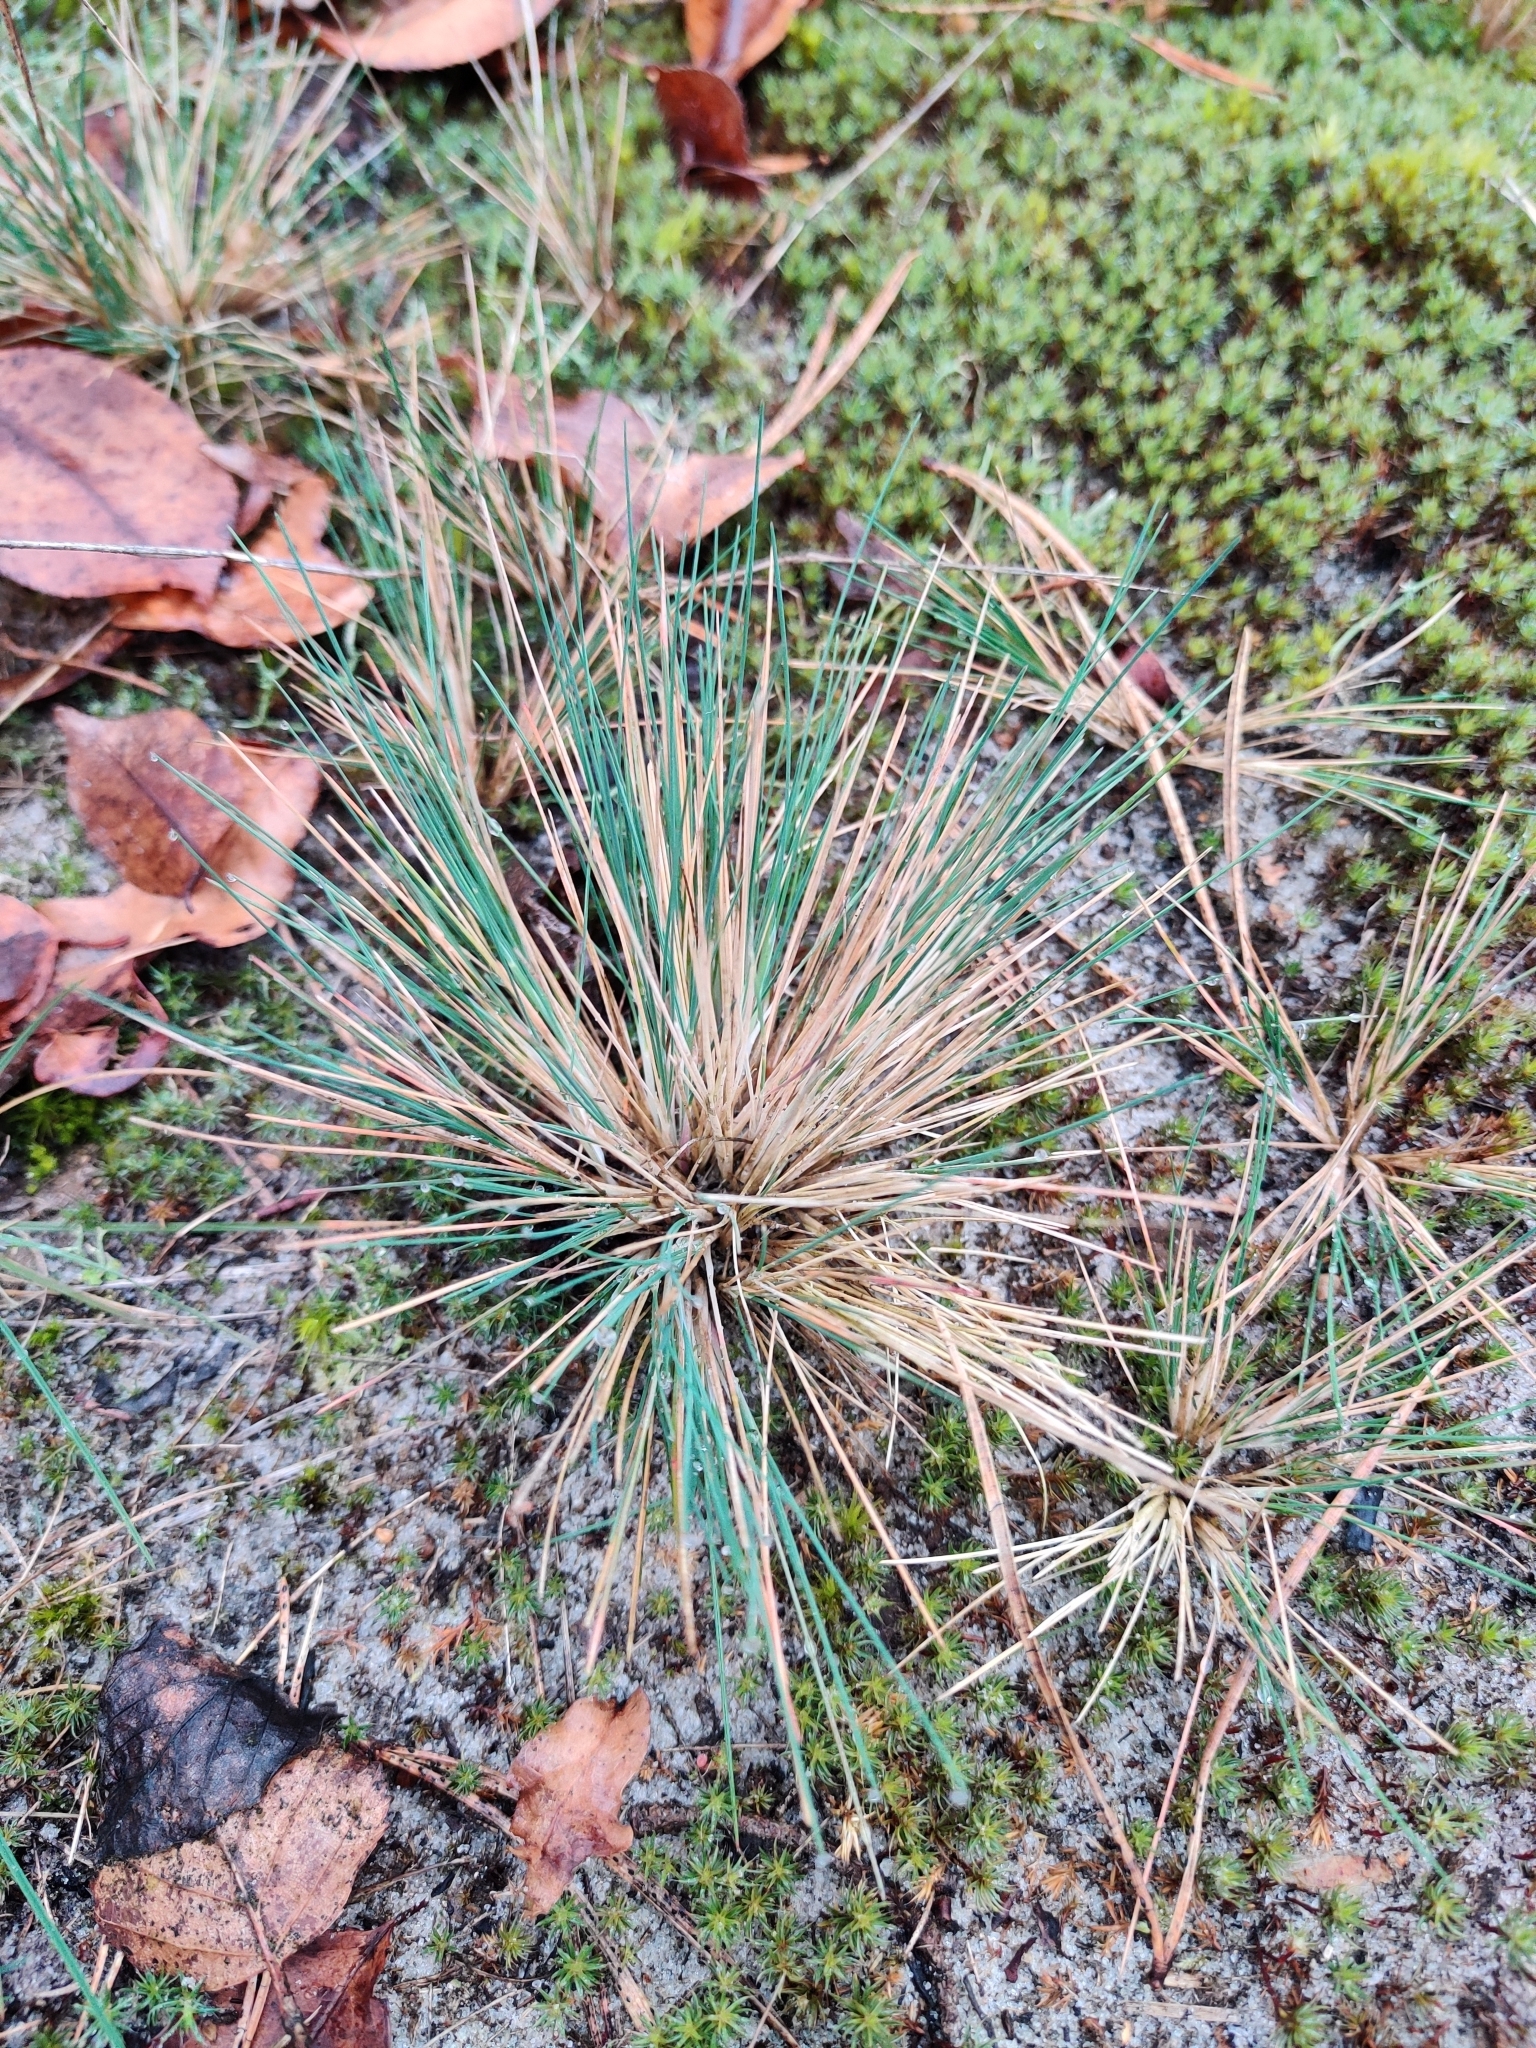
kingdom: Plantae
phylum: Tracheophyta
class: Liliopsida
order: Poales
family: Poaceae
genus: Corynephorus
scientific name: Corynephorus canescens
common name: Grey hair-grass
